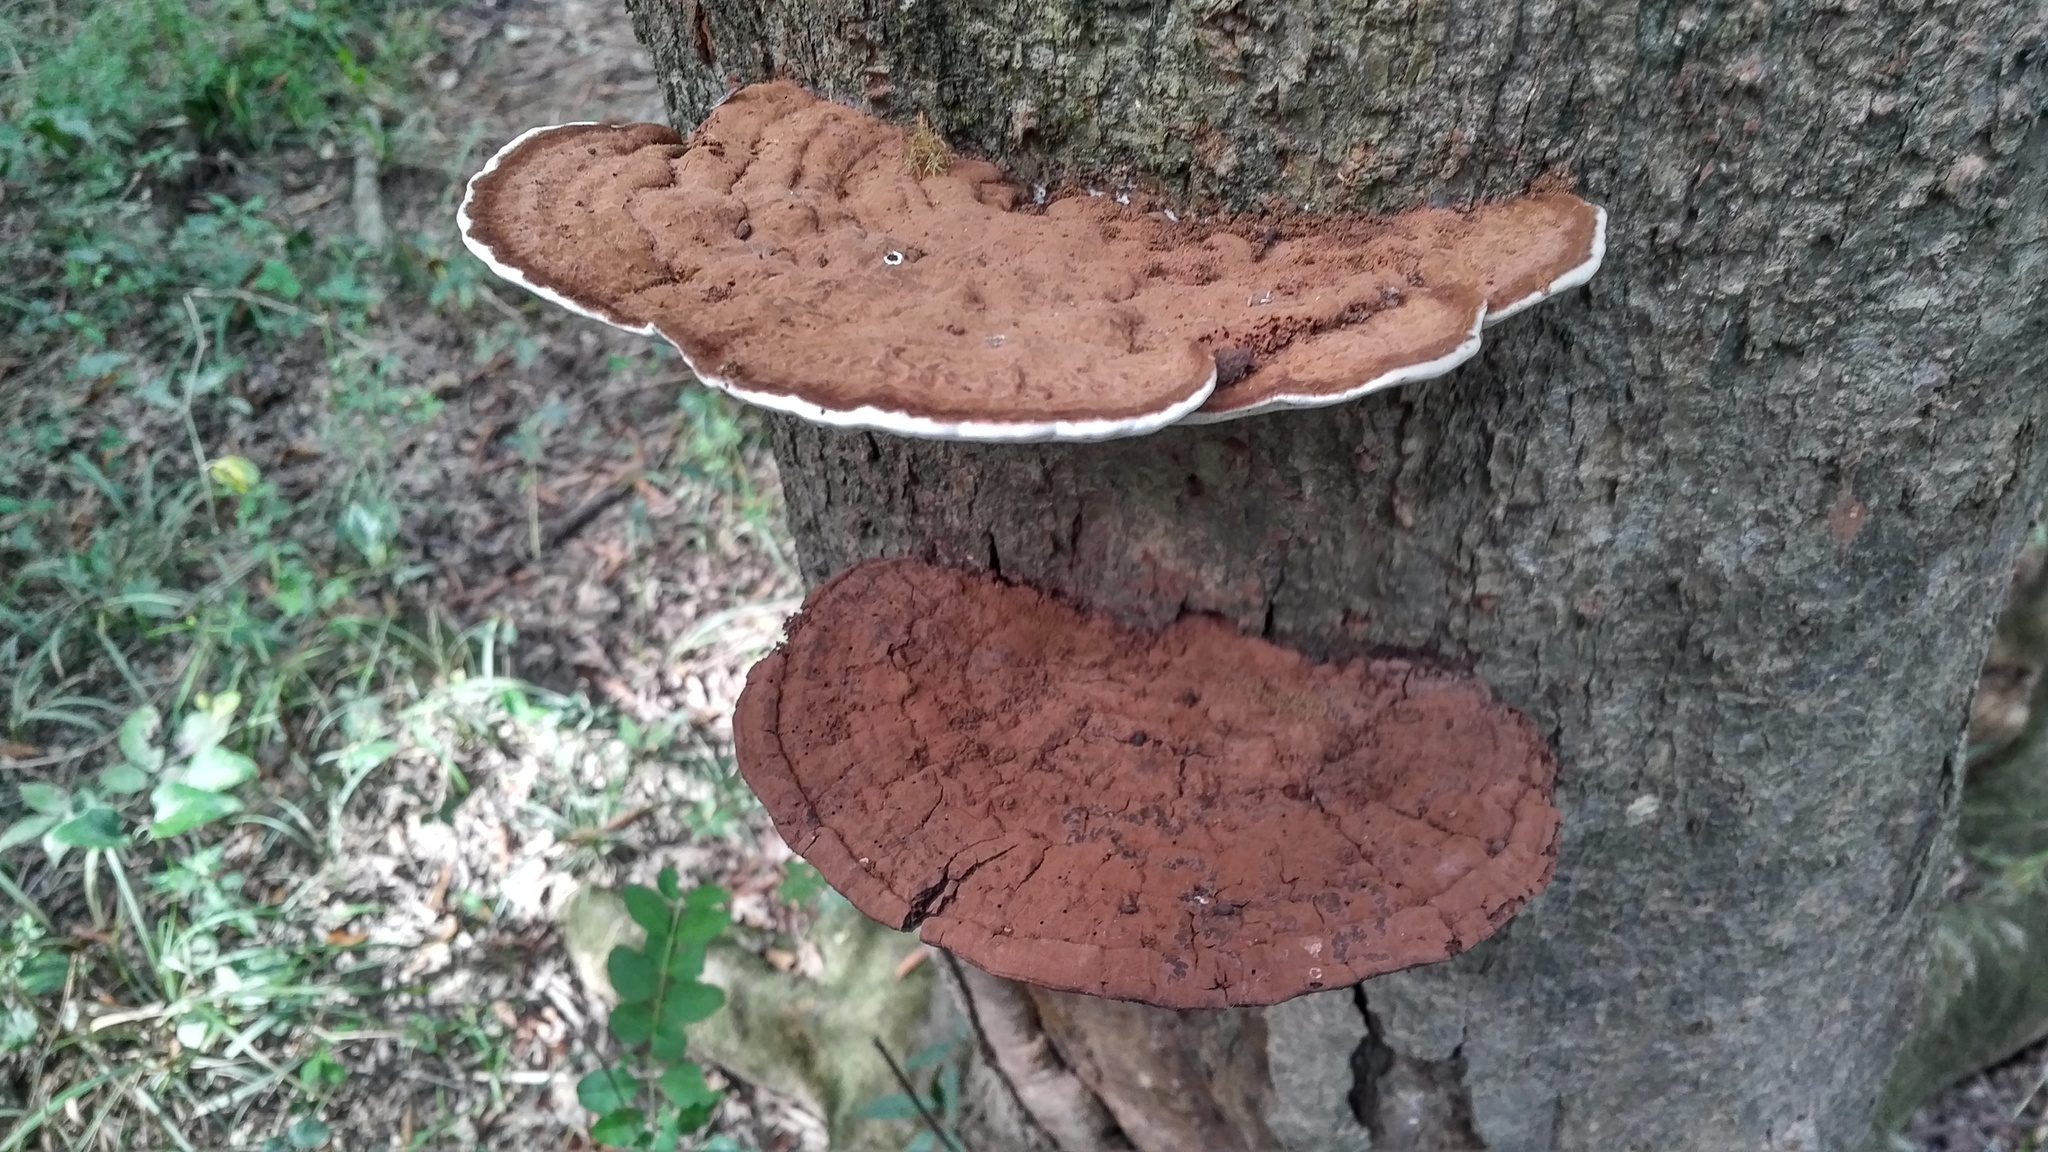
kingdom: Fungi
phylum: Basidiomycota
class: Agaricomycetes
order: Polyporales
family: Polyporaceae
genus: Ganoderma
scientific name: Ganoderma lobatum
